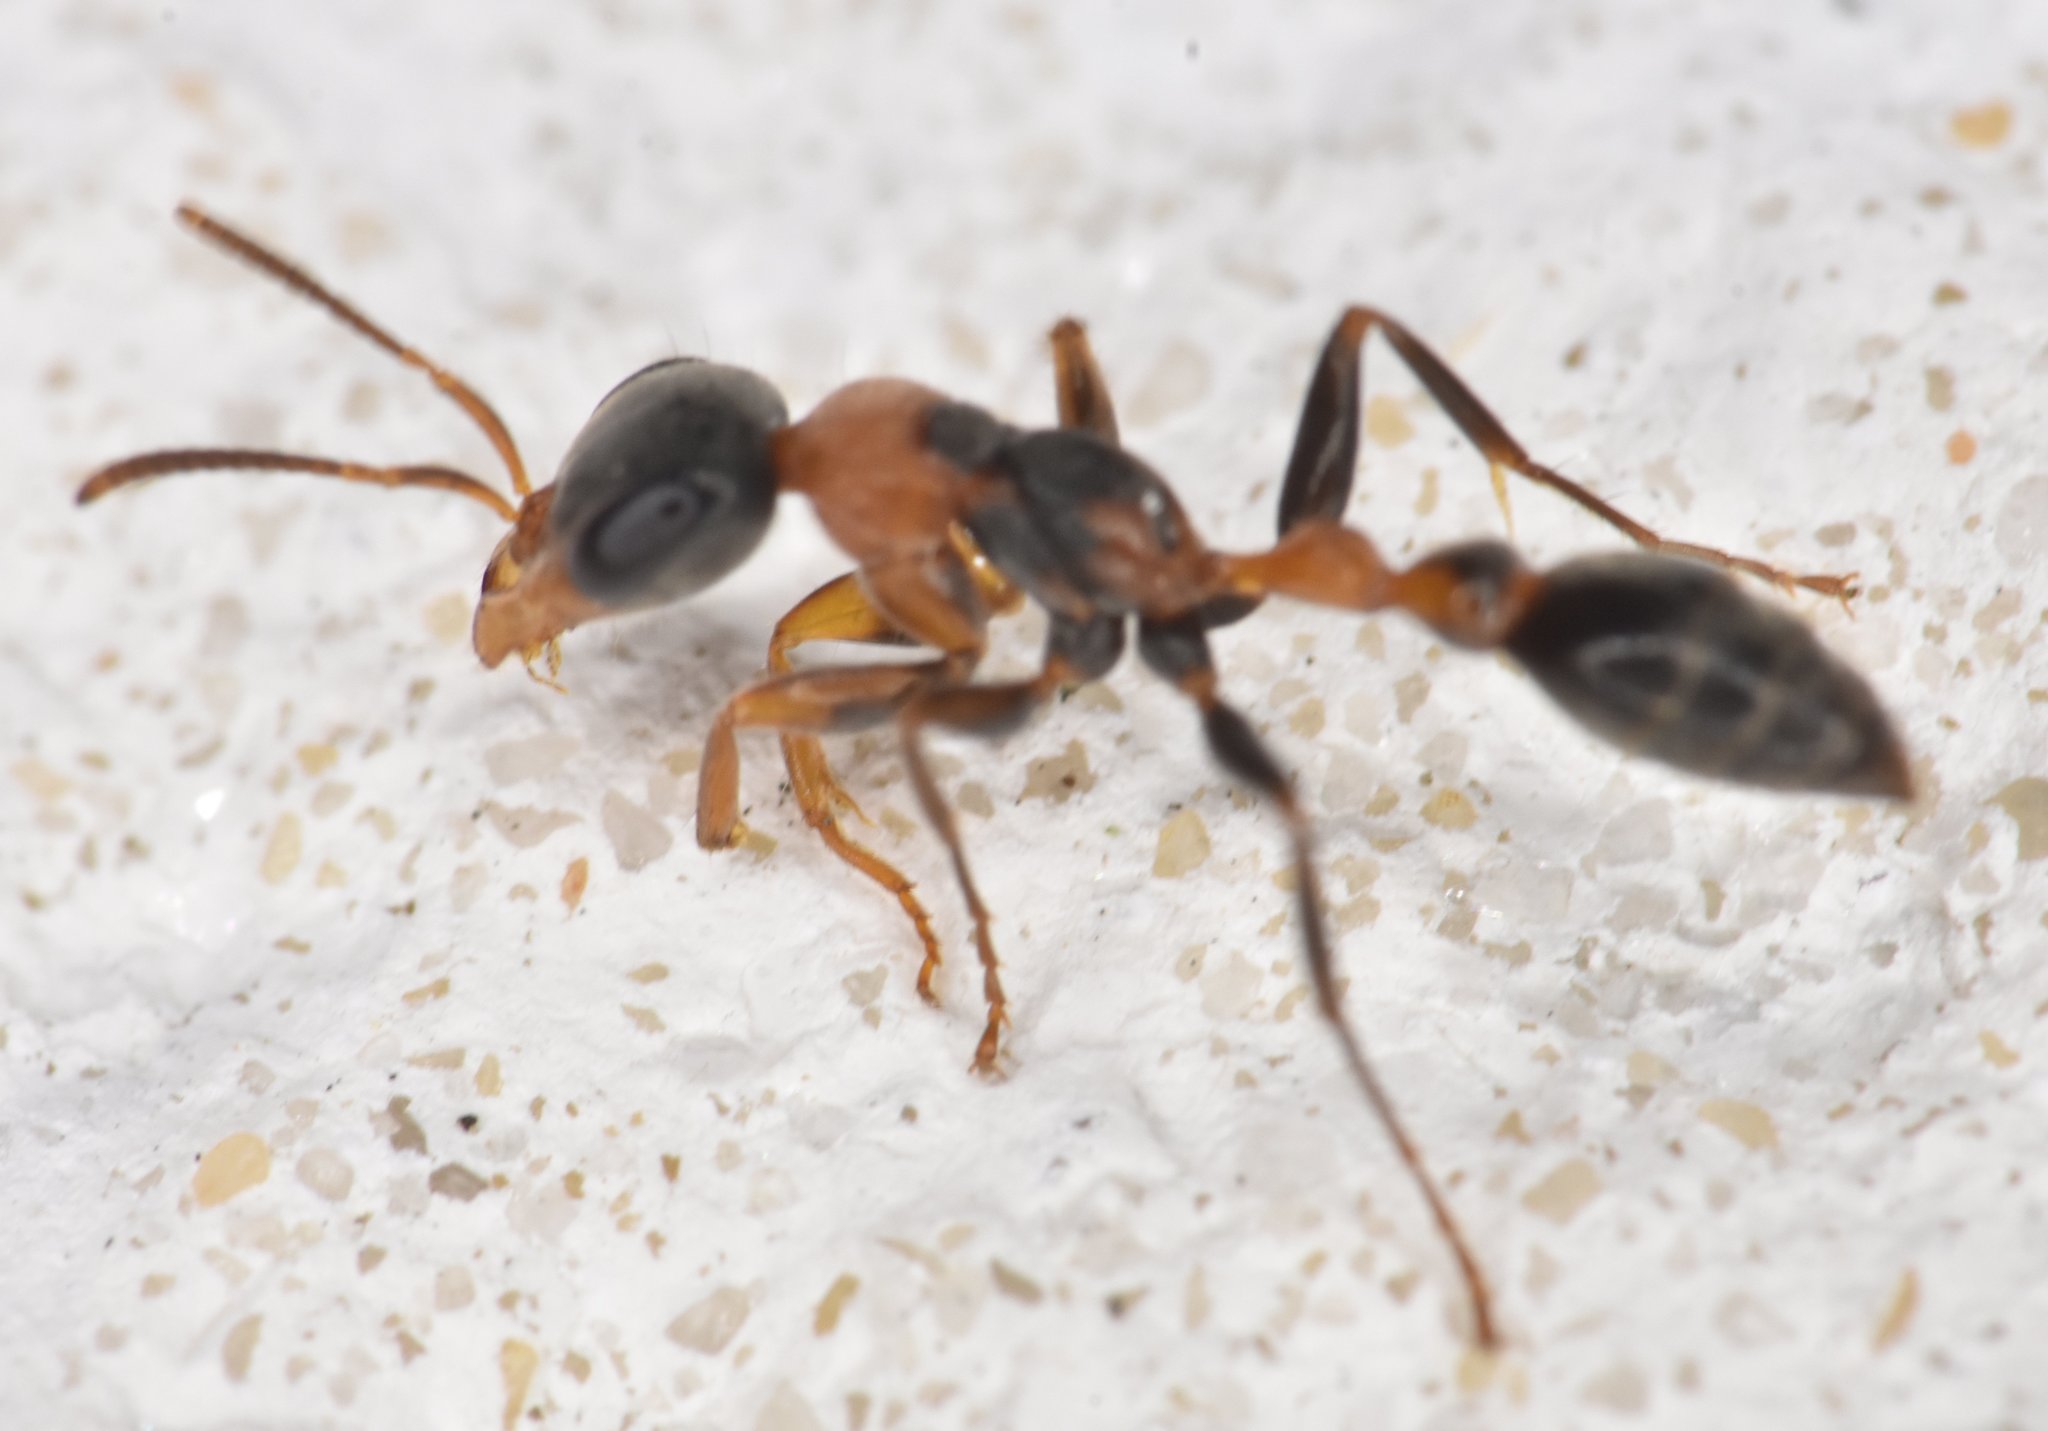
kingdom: Animalia
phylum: Arthropoda
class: Insecta
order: Hymenoptera
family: Formicidae
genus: Pseudomyrmex
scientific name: Pseudomyrmex gracilis
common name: Graceful twig ant
